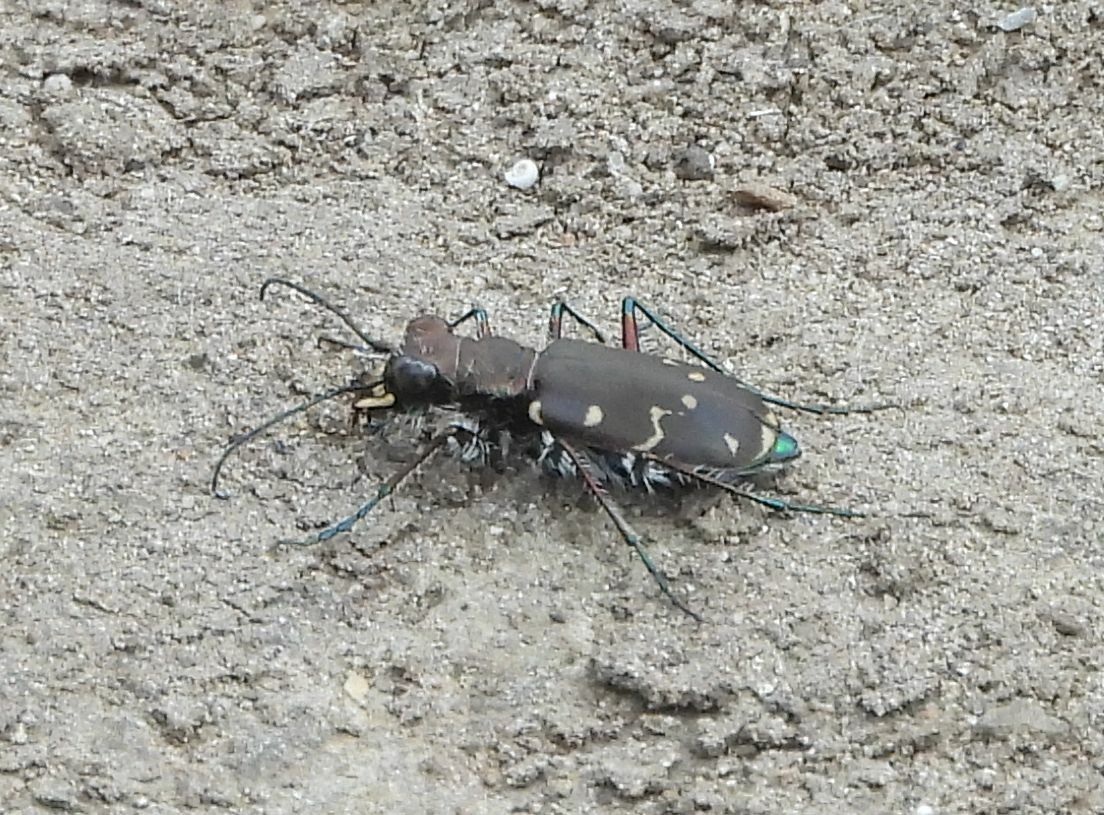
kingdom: Animalia
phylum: Arthropoda
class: Insecta
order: Coleoptera
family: Carabidae
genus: Cicindela
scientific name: Cicindela duodecimguttata
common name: Twelve-spotted tiger beetle
